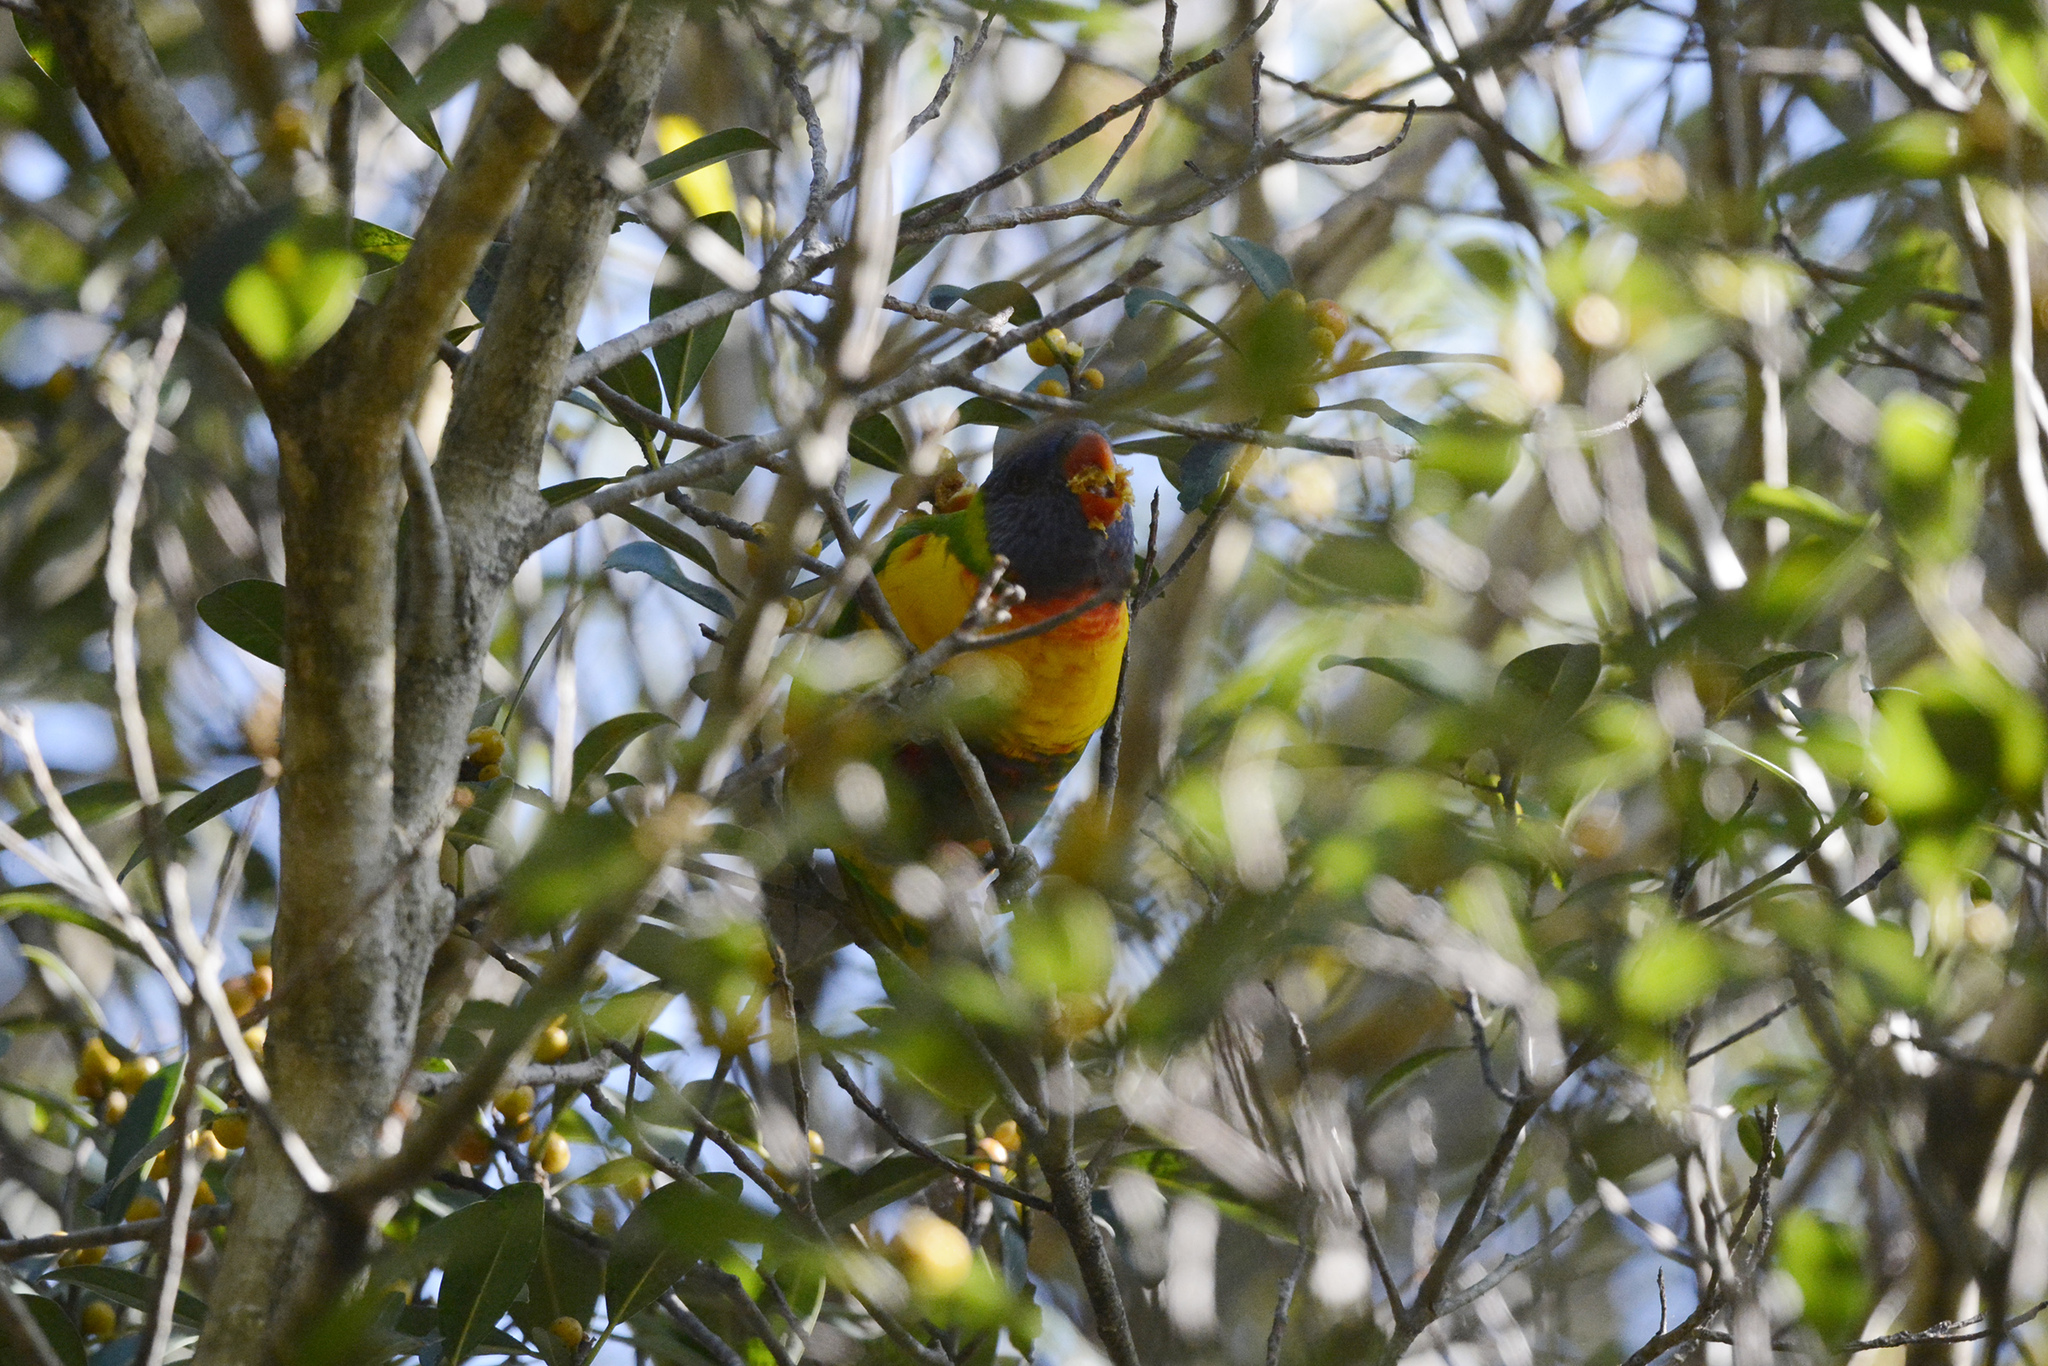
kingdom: Animalia
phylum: Chordata
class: Aves
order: Psittaciformes
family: Psittacidae
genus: Trichoglossus
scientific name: Trichoglossus haematodus
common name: Coconut lorikeet
